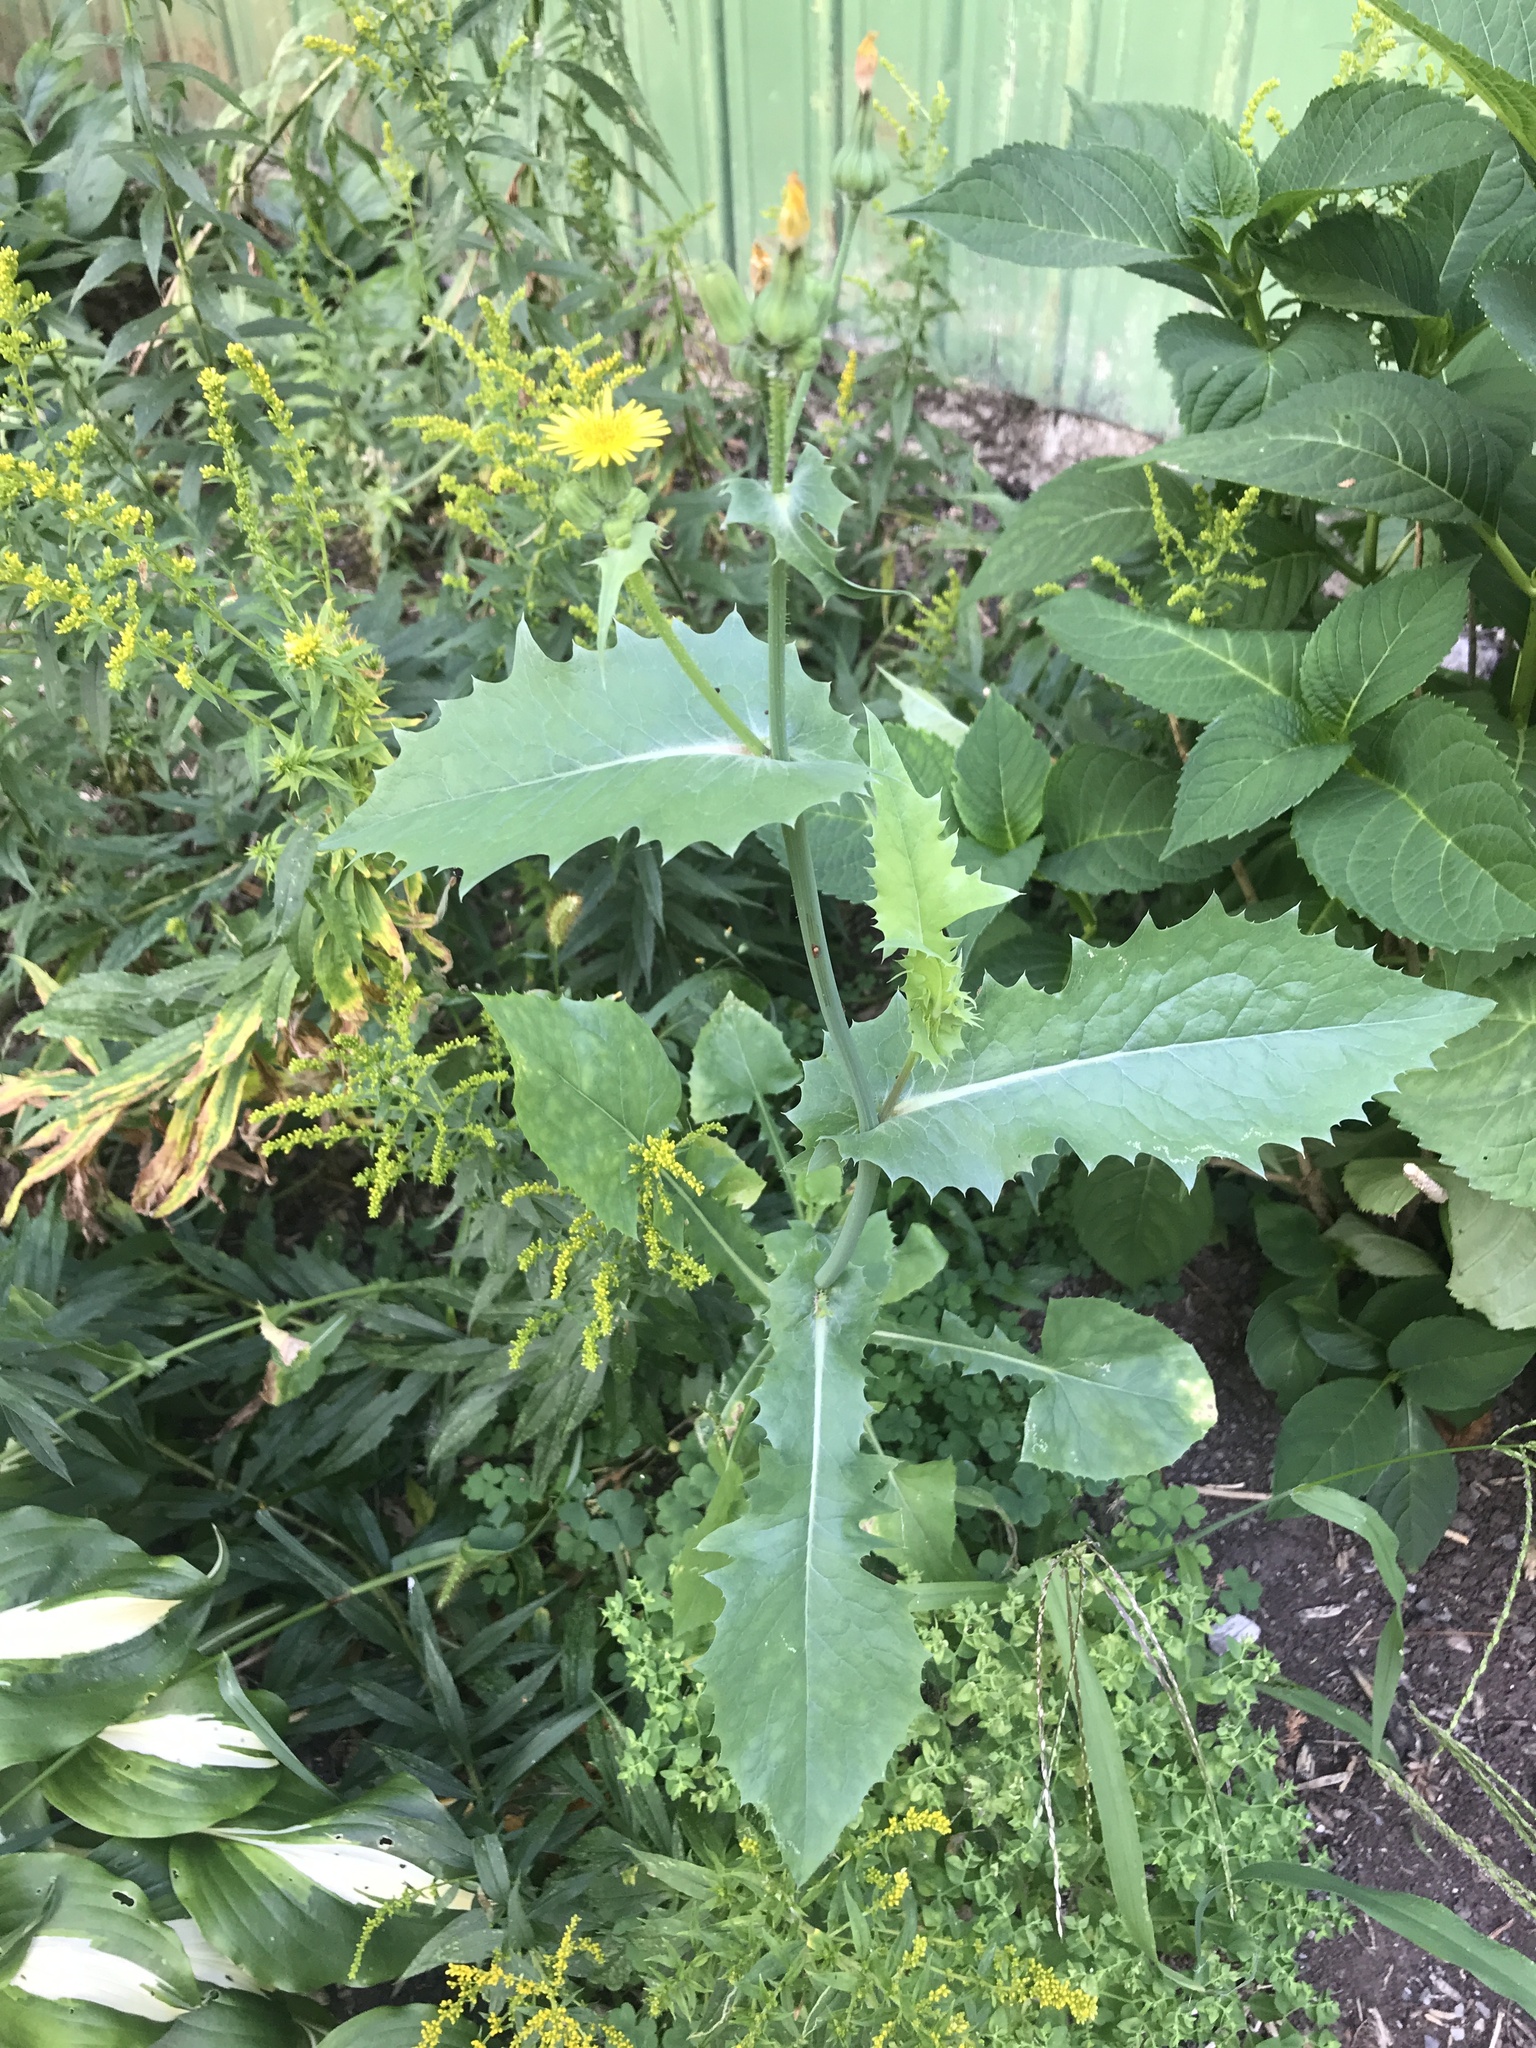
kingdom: Plantae
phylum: Tracheophyta
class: Magnoliopsida
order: Asterales
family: Asteraceae
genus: Sonchus
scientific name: Sonchus oleraceus
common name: Common sowthistle
